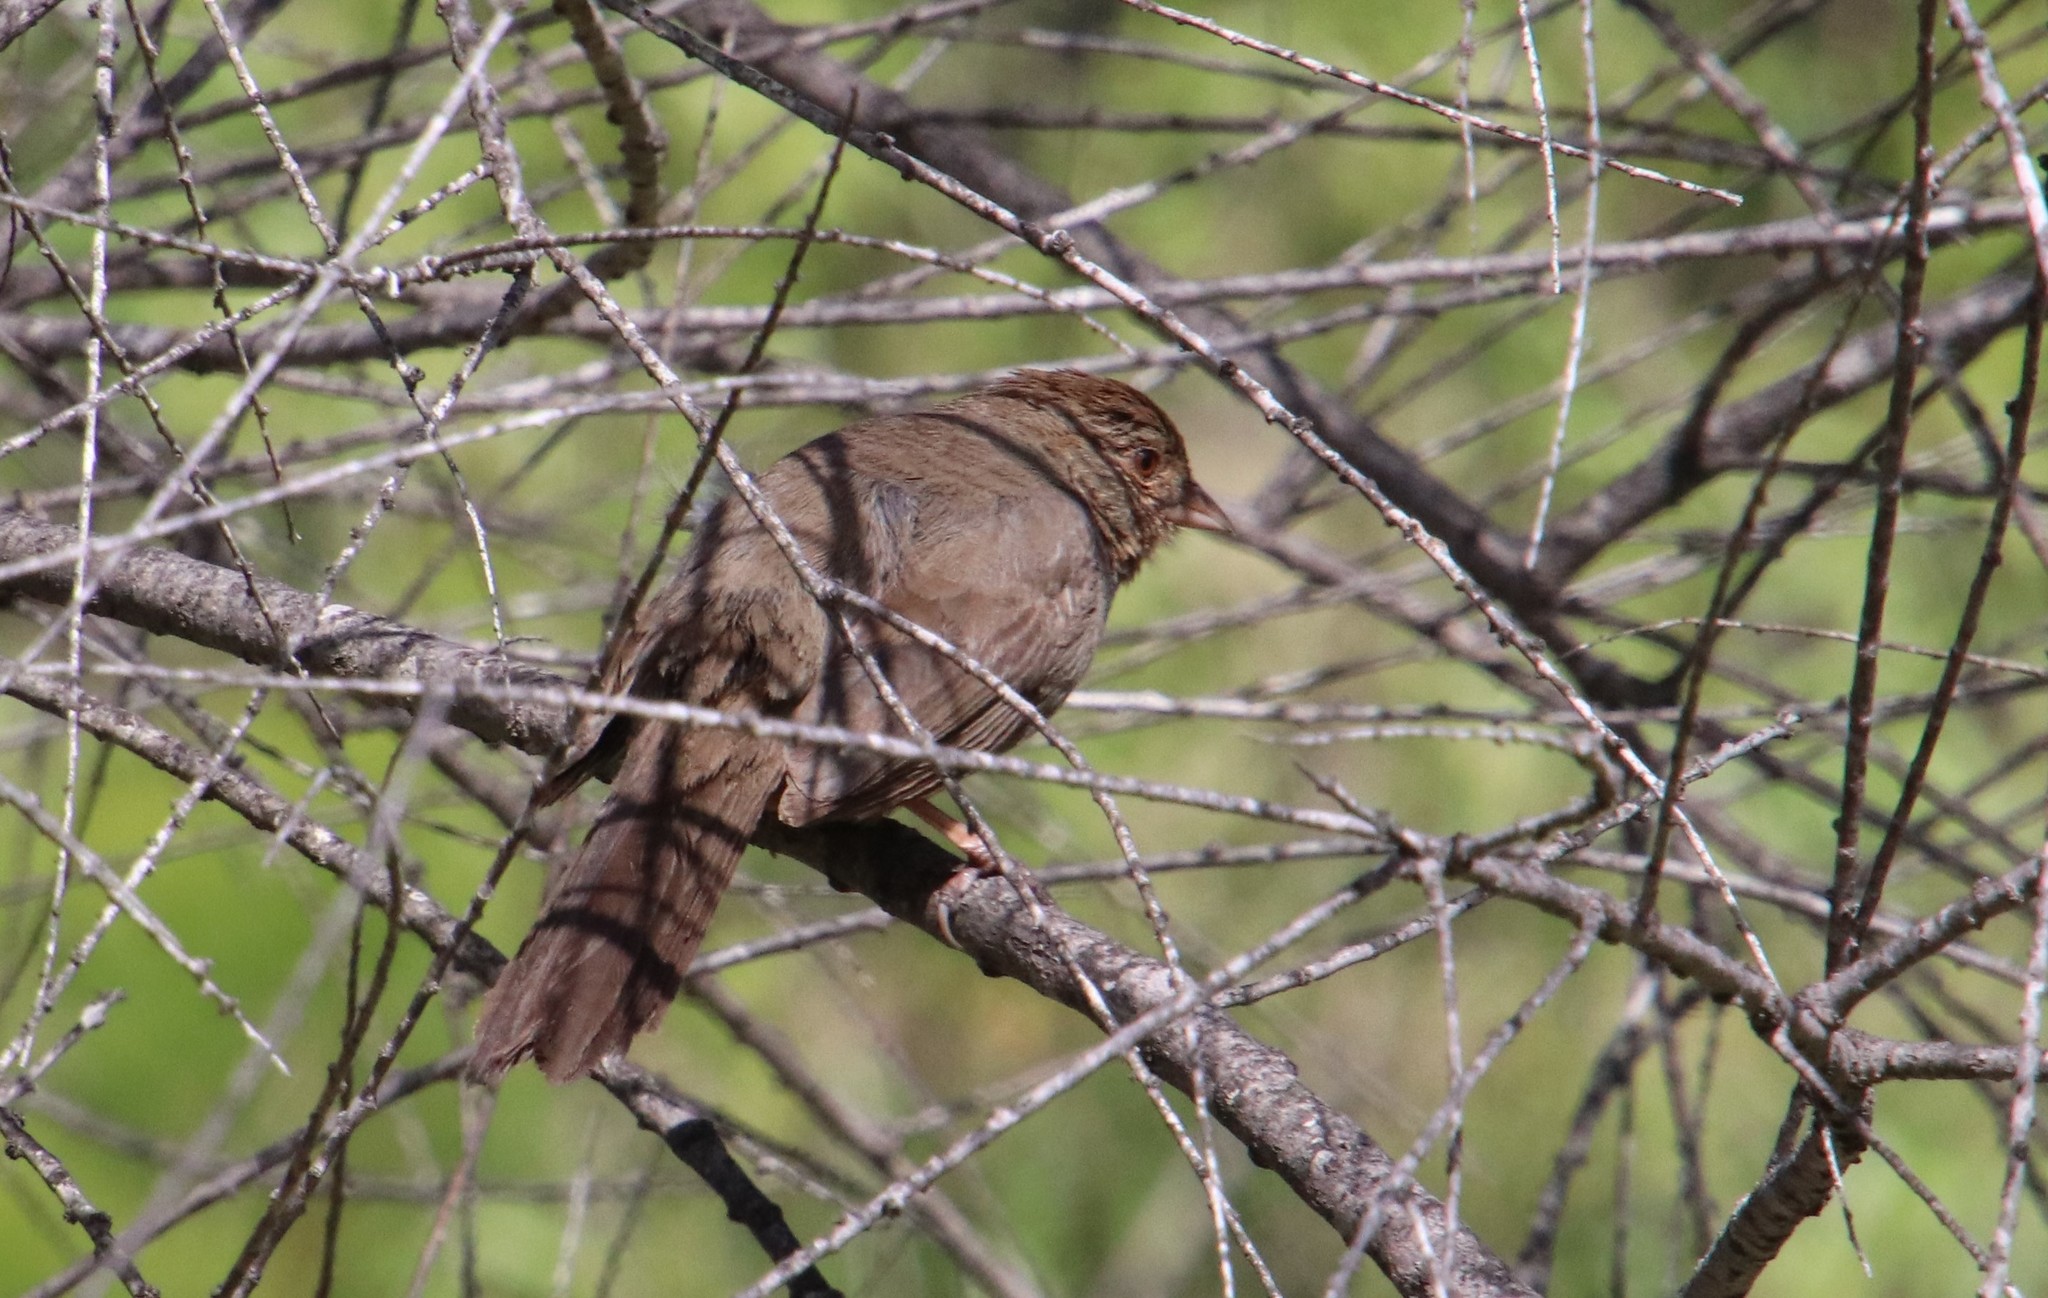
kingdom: Animalia
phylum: Chordata
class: Aves
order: Passeriformes
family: Passerellidae
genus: Melozone
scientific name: Melozone crissalis
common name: California towhee
